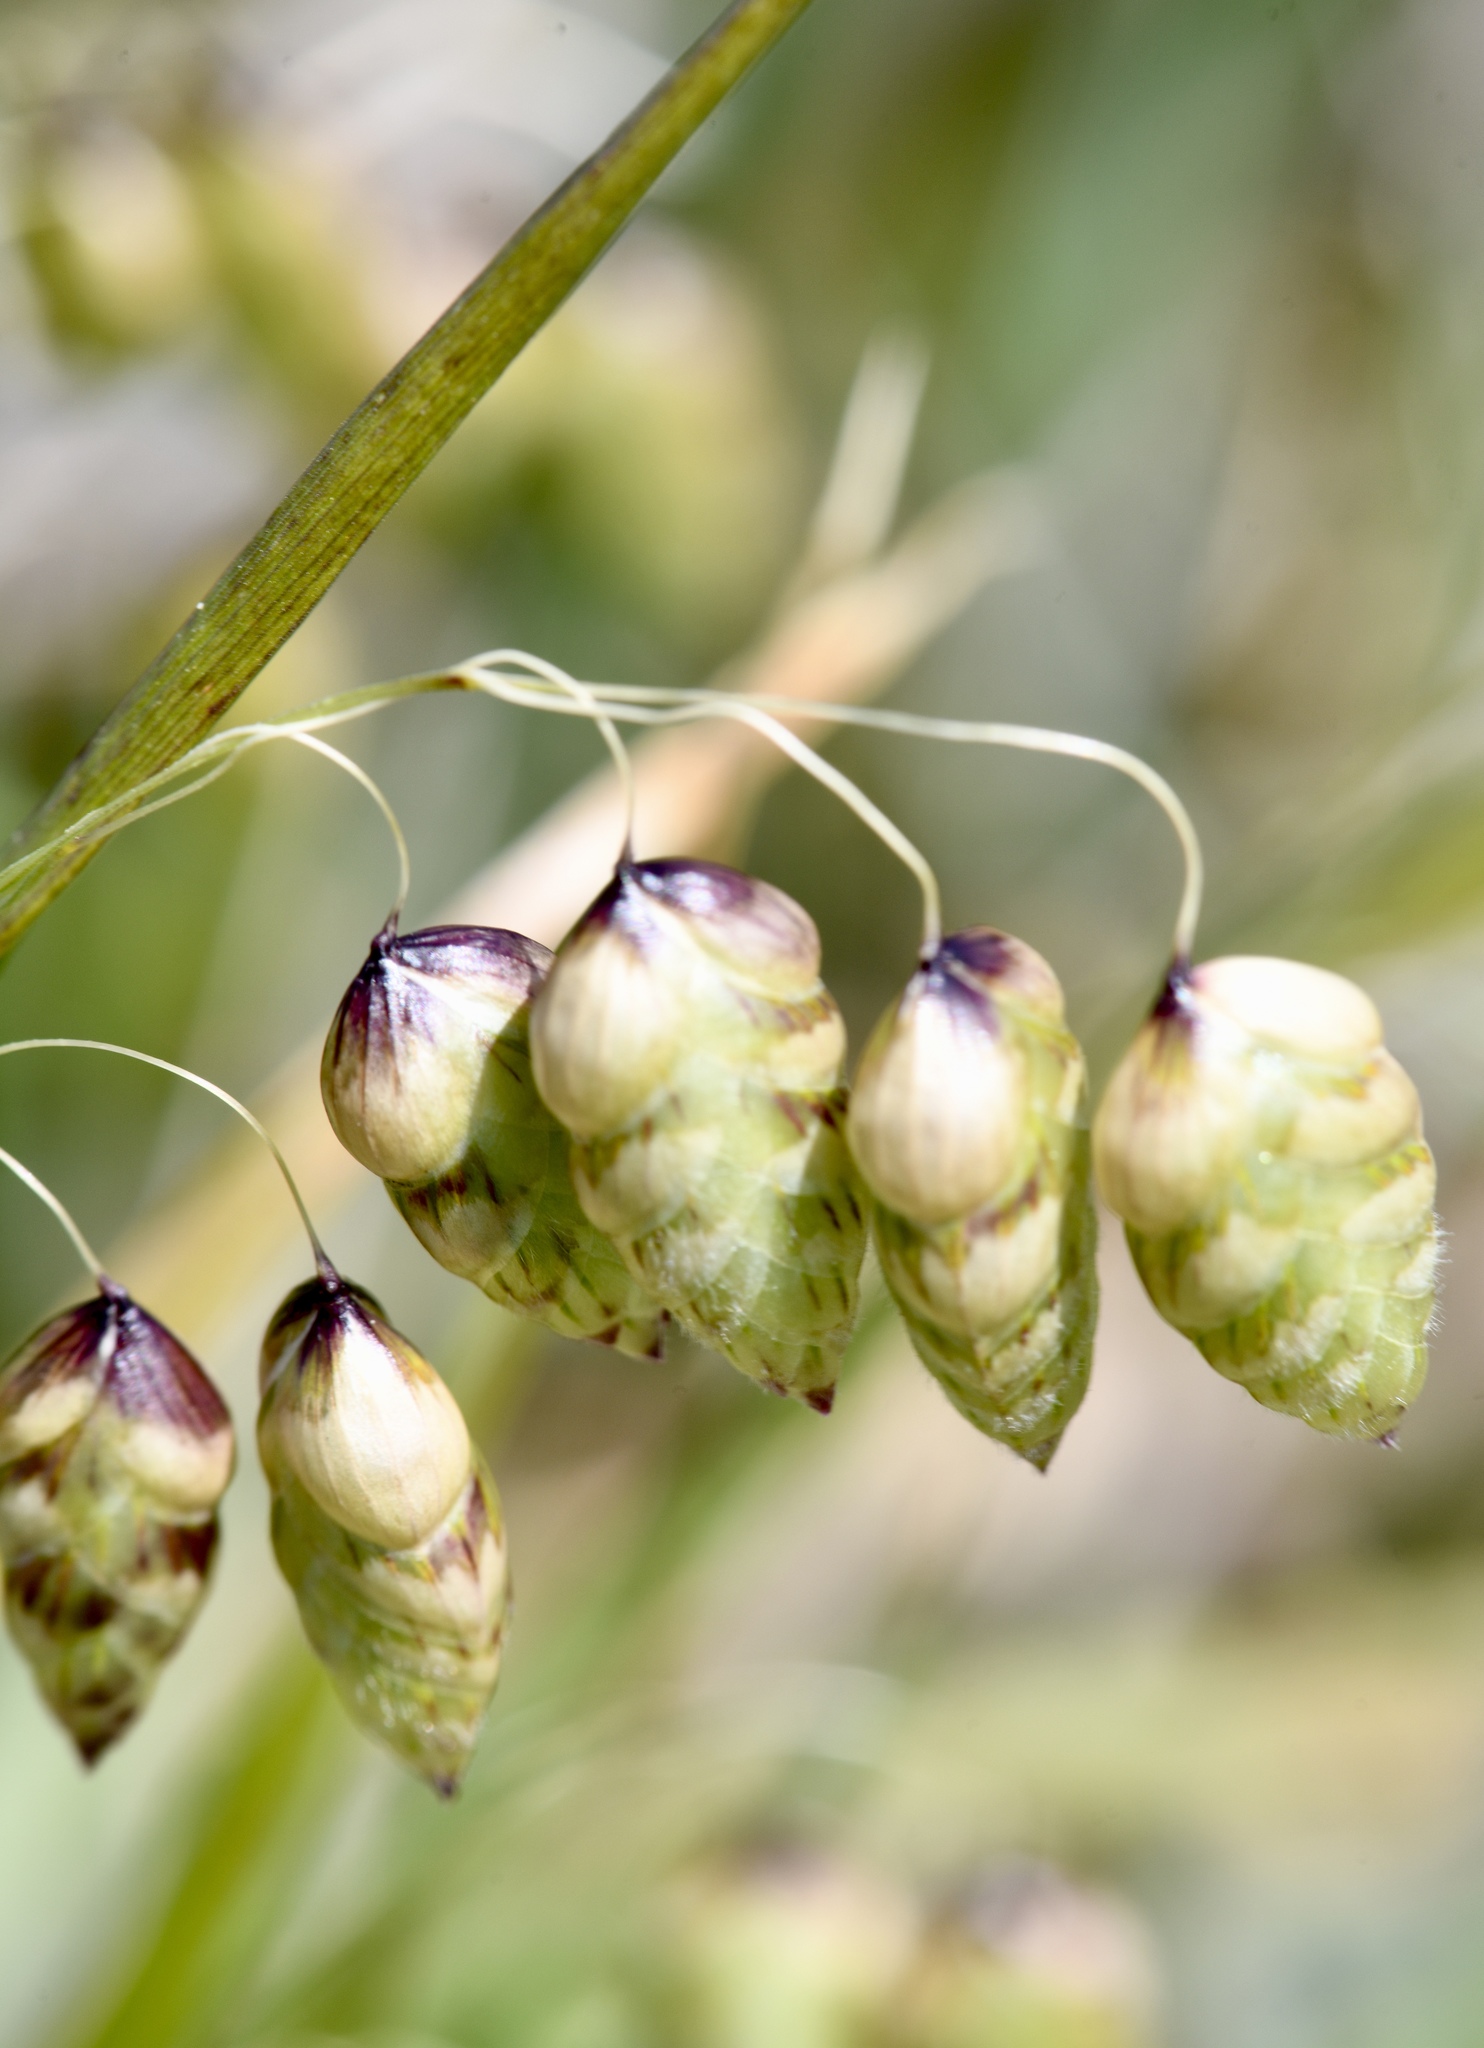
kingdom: Plantae
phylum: Tracheophyta
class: Liliopsida
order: Poales
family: Poaceae
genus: Briza
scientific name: Briza maxima
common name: Big quakinggrass
